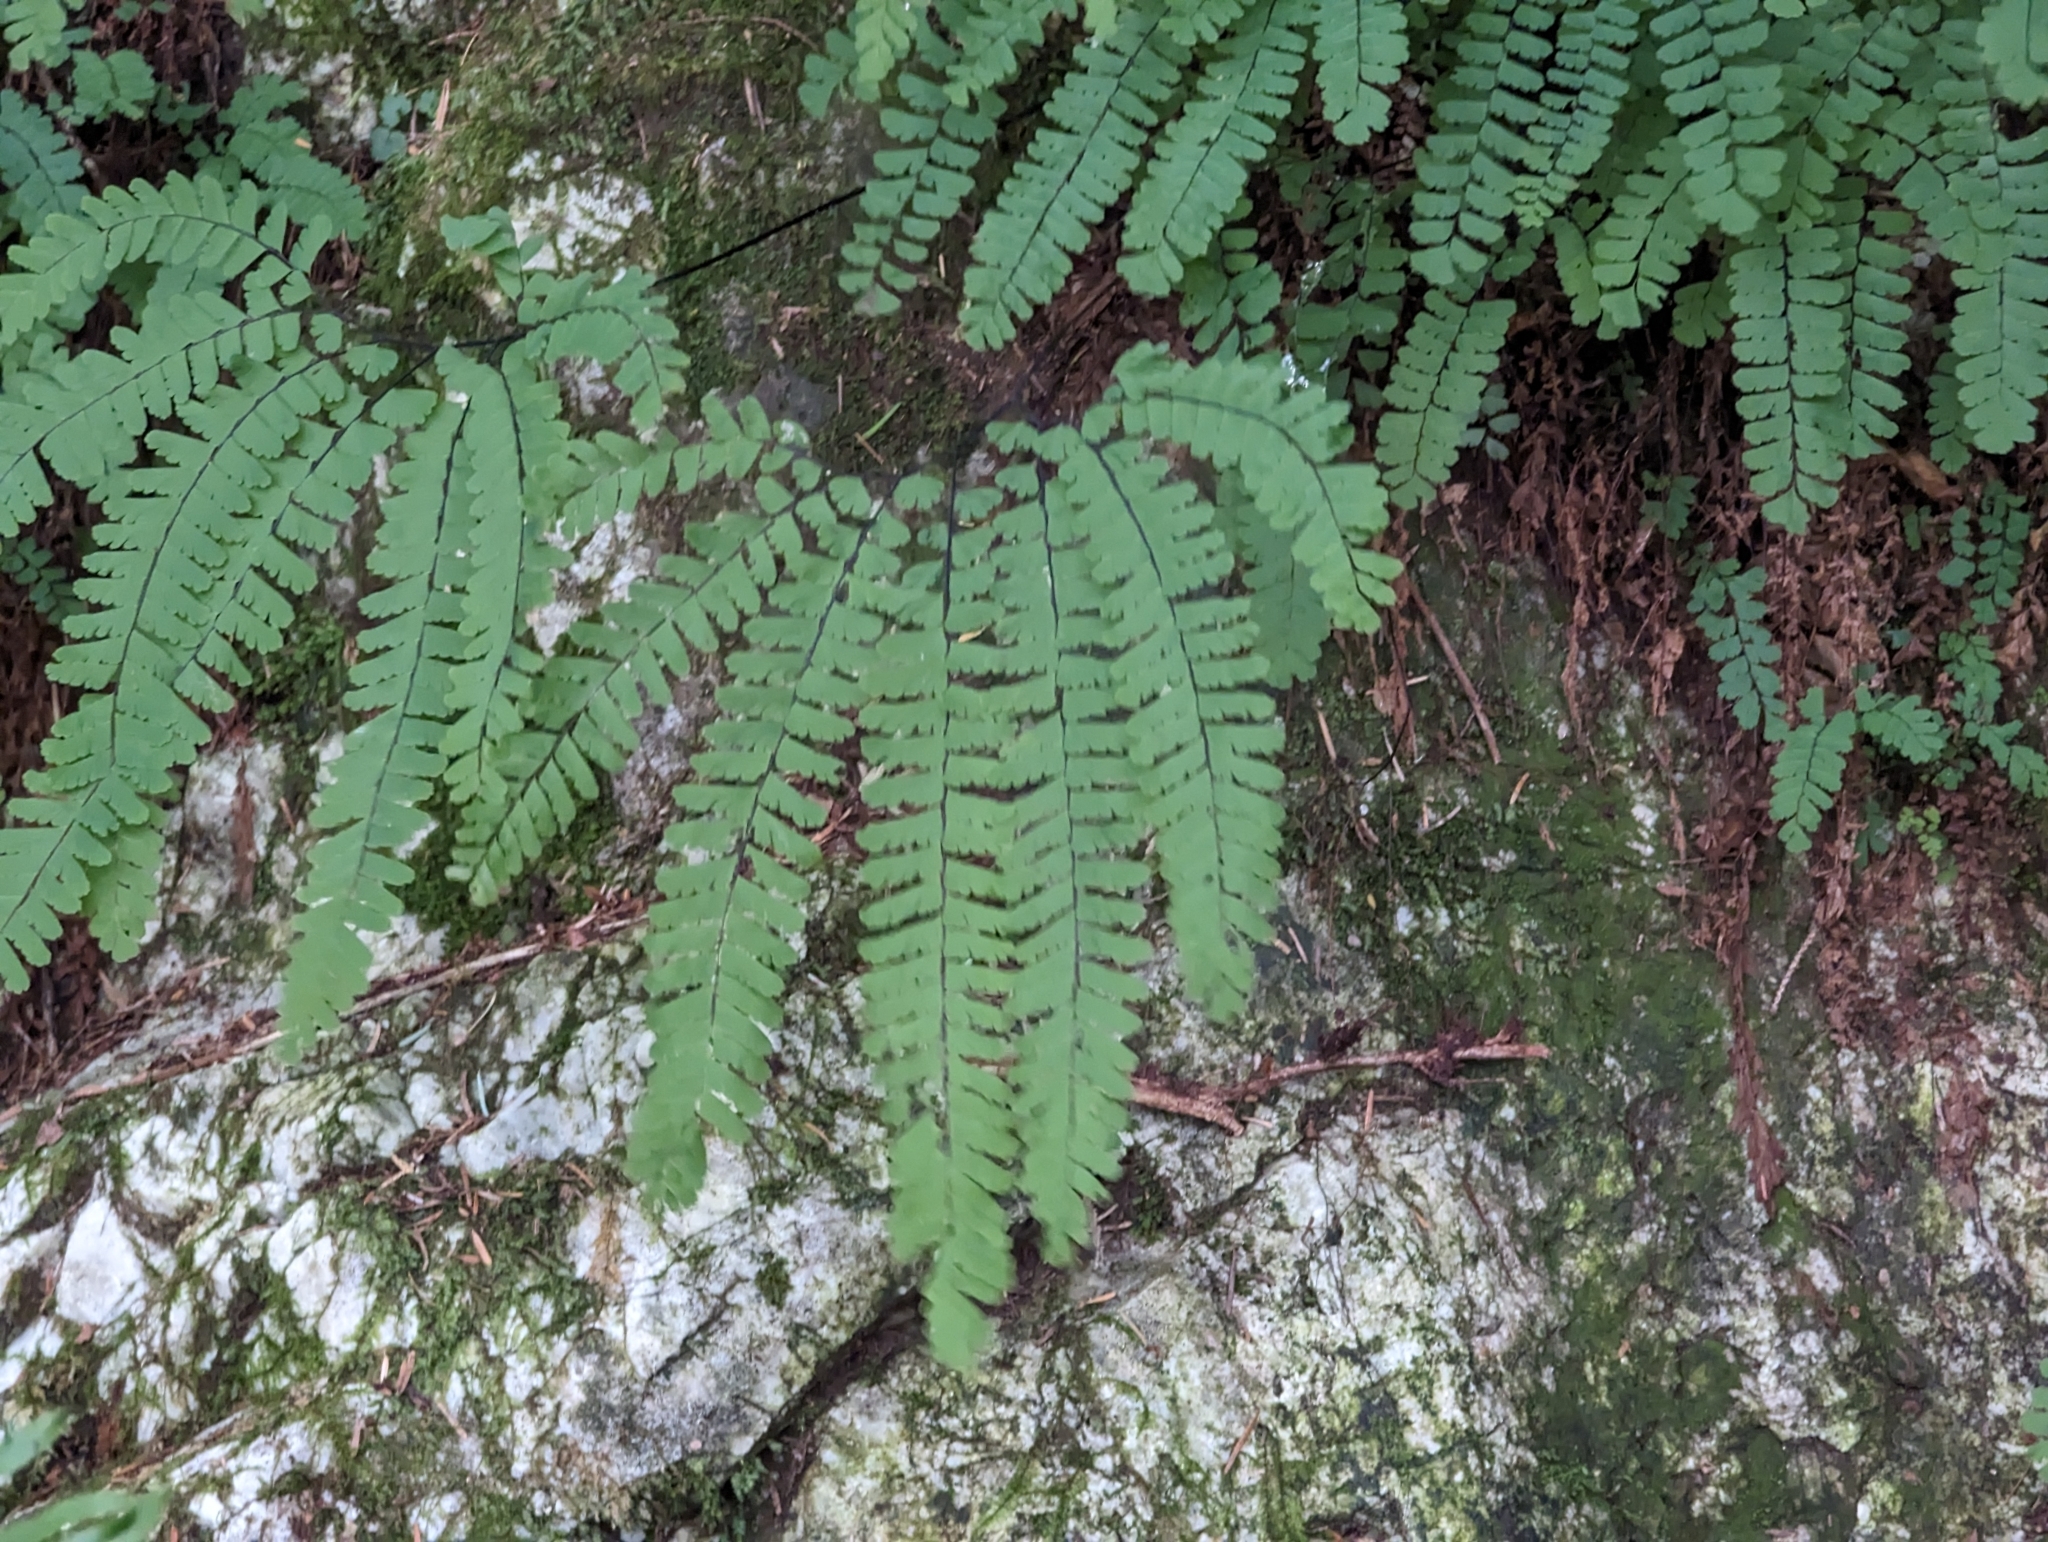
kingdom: Plantae
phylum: Tracheophyta
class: Polypodiopsida
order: Polypodiales
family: Pteridaceae
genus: Adiantum
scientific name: Adiantum aleuticum
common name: Aleutian maidenhair fern
